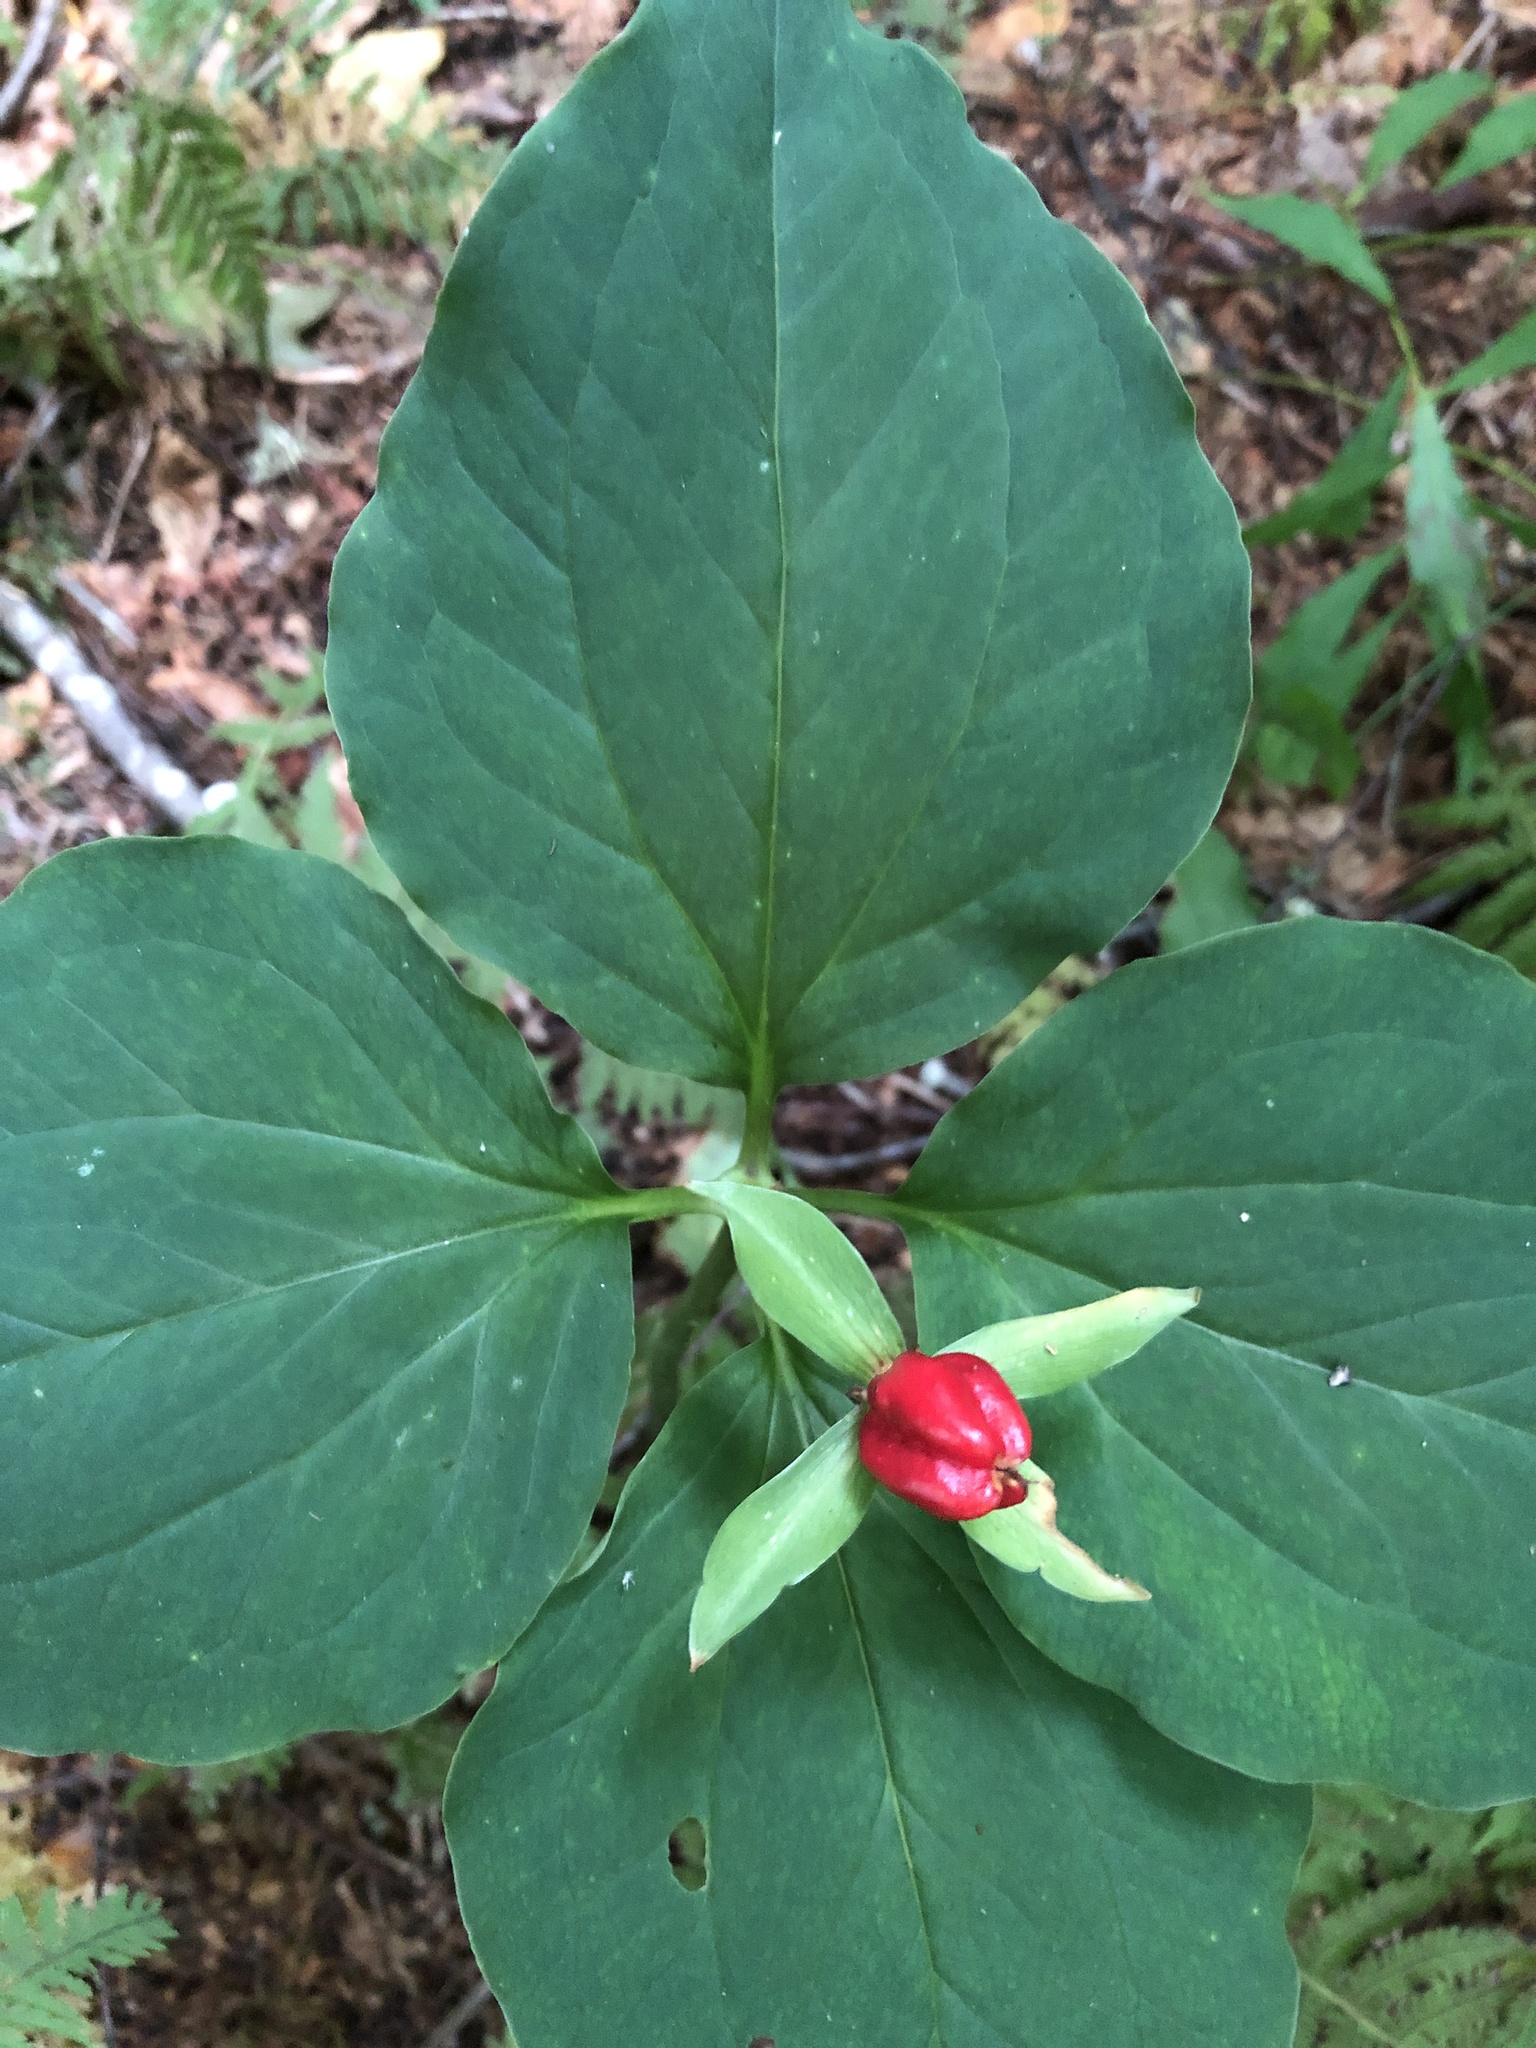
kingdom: Plantae
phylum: Tracheophyta
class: Liliopsida
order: Liliales
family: Melanthiaceae
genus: Trillium
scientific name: Trillium undulatum
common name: Paint trillium
